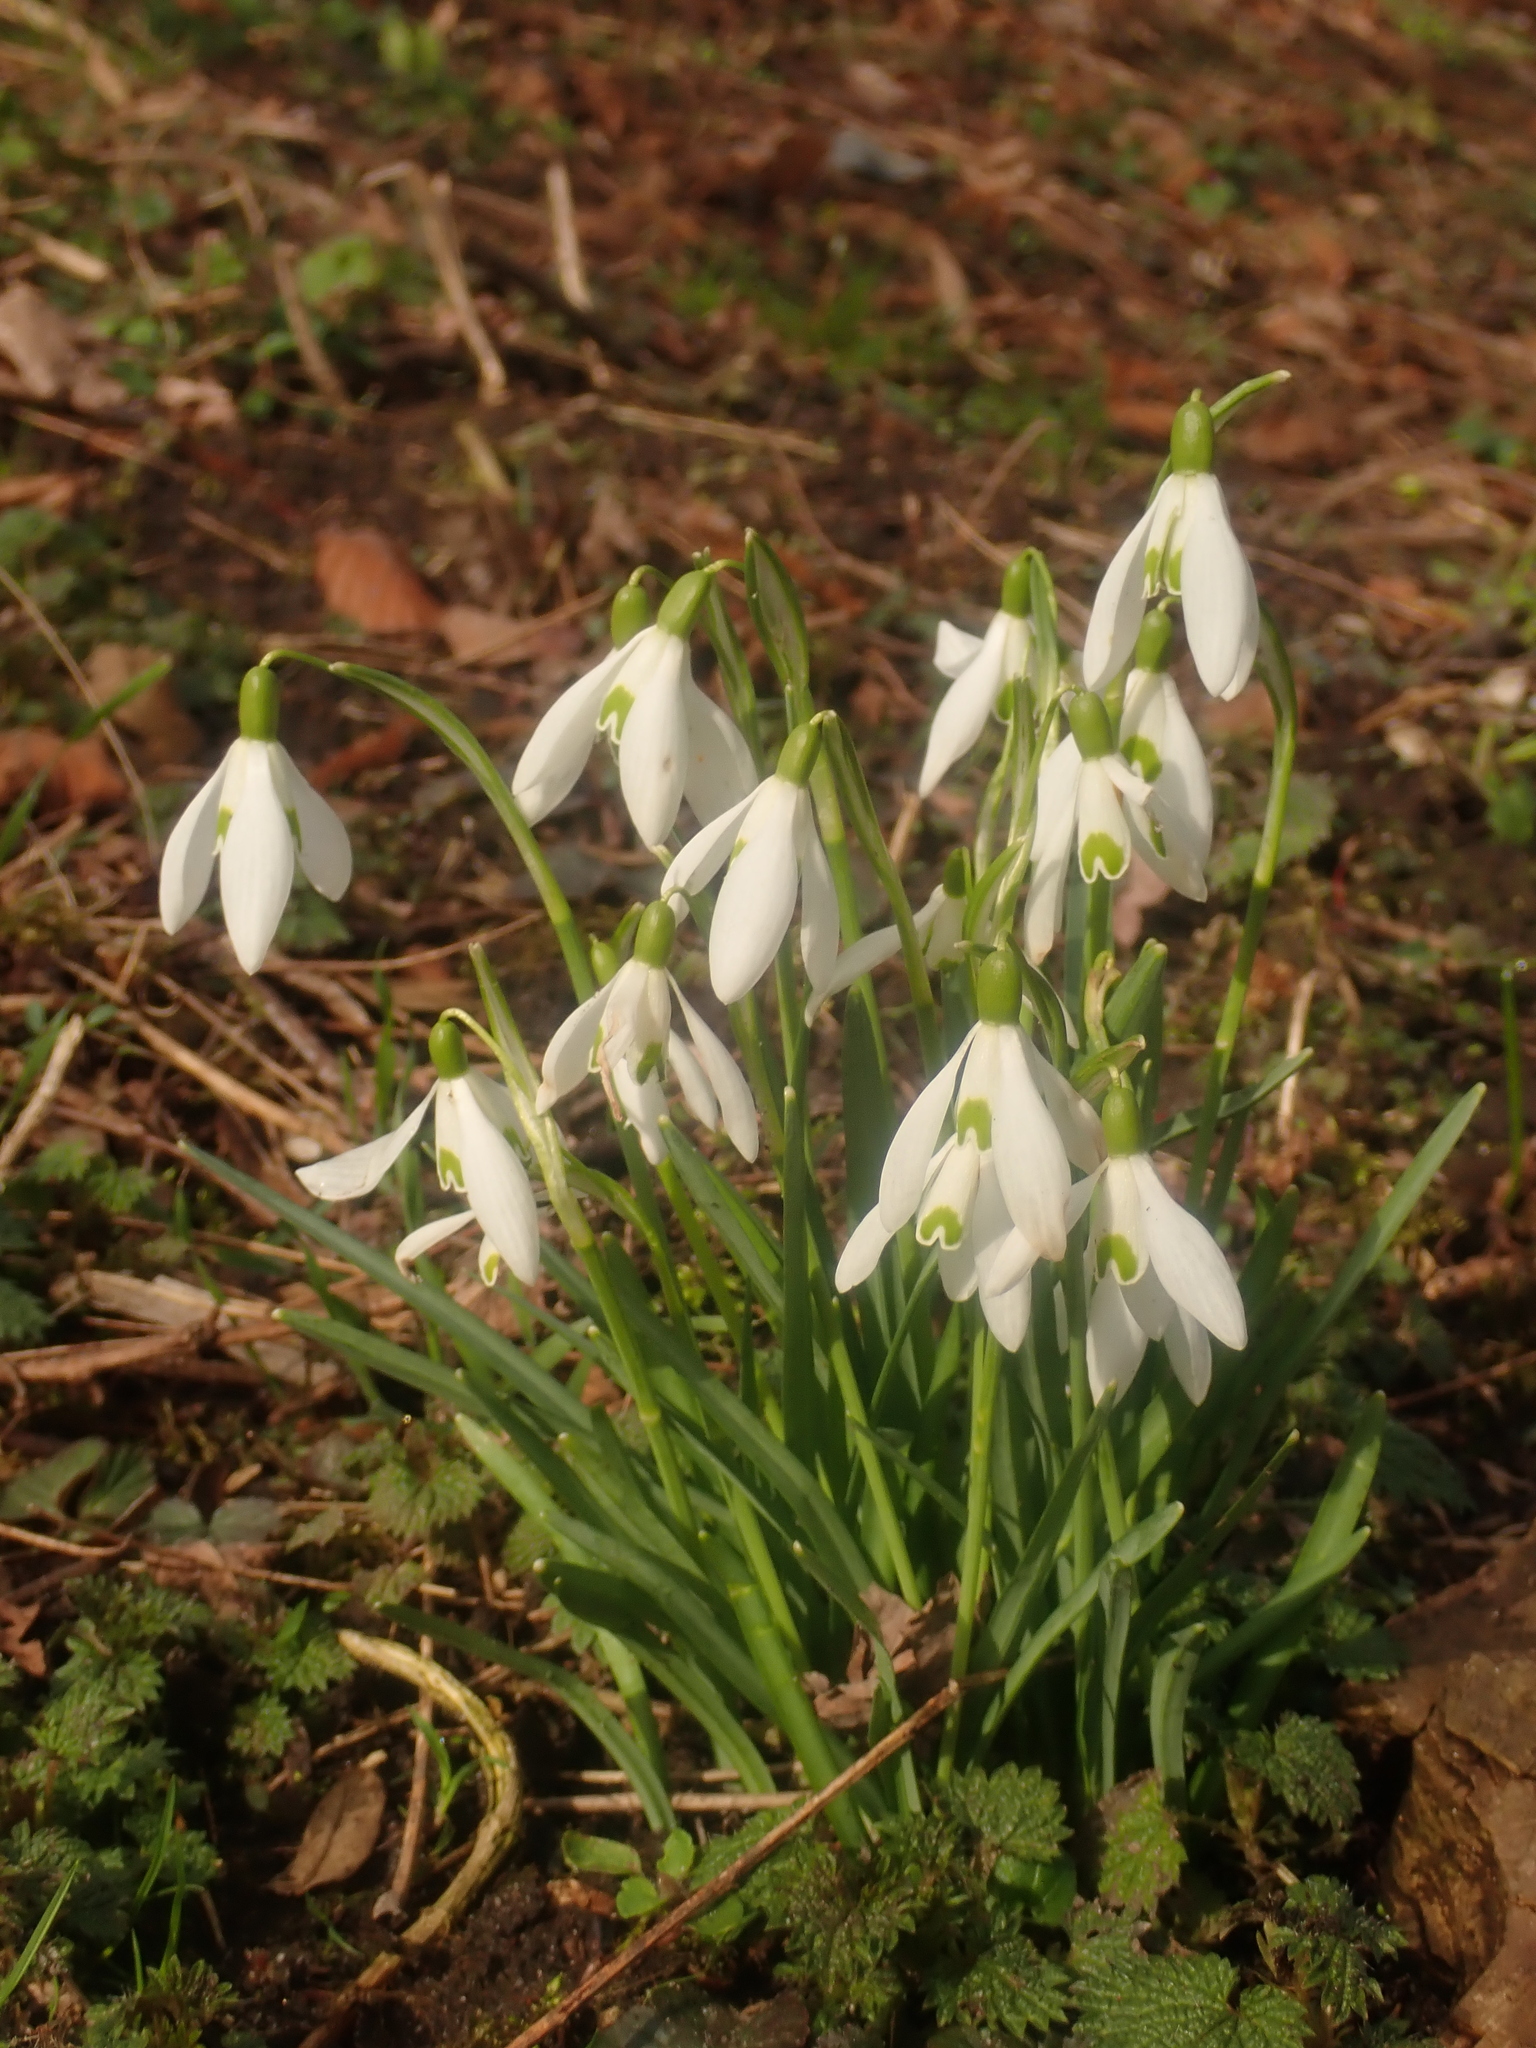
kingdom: Plantae
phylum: Tracheophyta
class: Liliopsida
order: Asparagales
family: Amaryllidaceae
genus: Galanthus
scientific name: Galanthus nivalis
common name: Snowdrop
